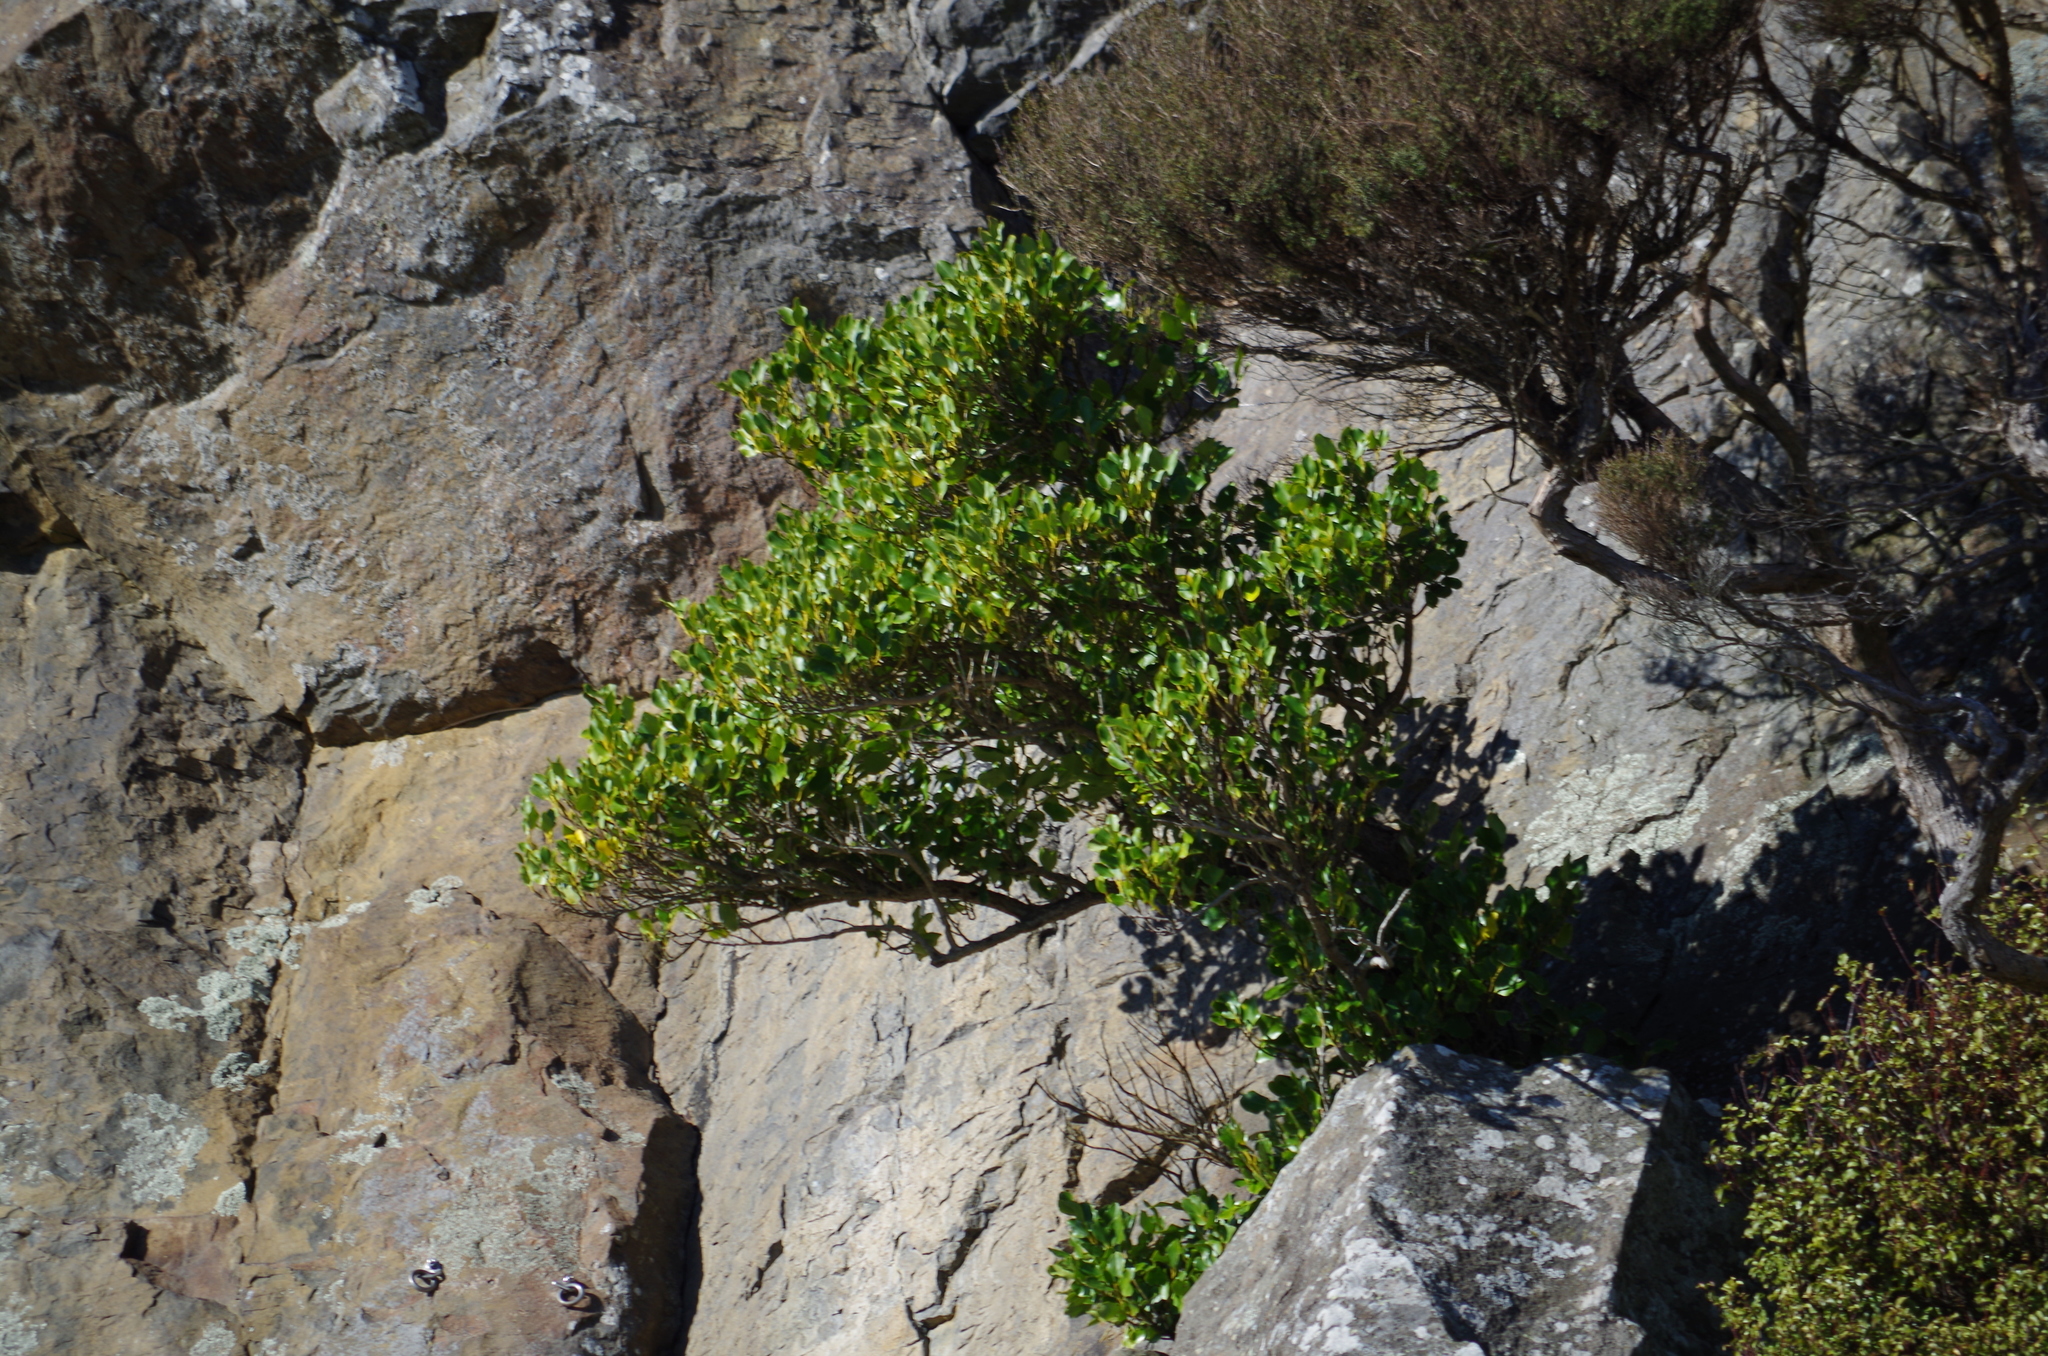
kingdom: Plantae
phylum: Tracheophyta
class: Magnoliopsida
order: Apiales
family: Griseliniaceae
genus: Griselinia
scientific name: Griselinia littoralis
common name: New zealand broadleaf
